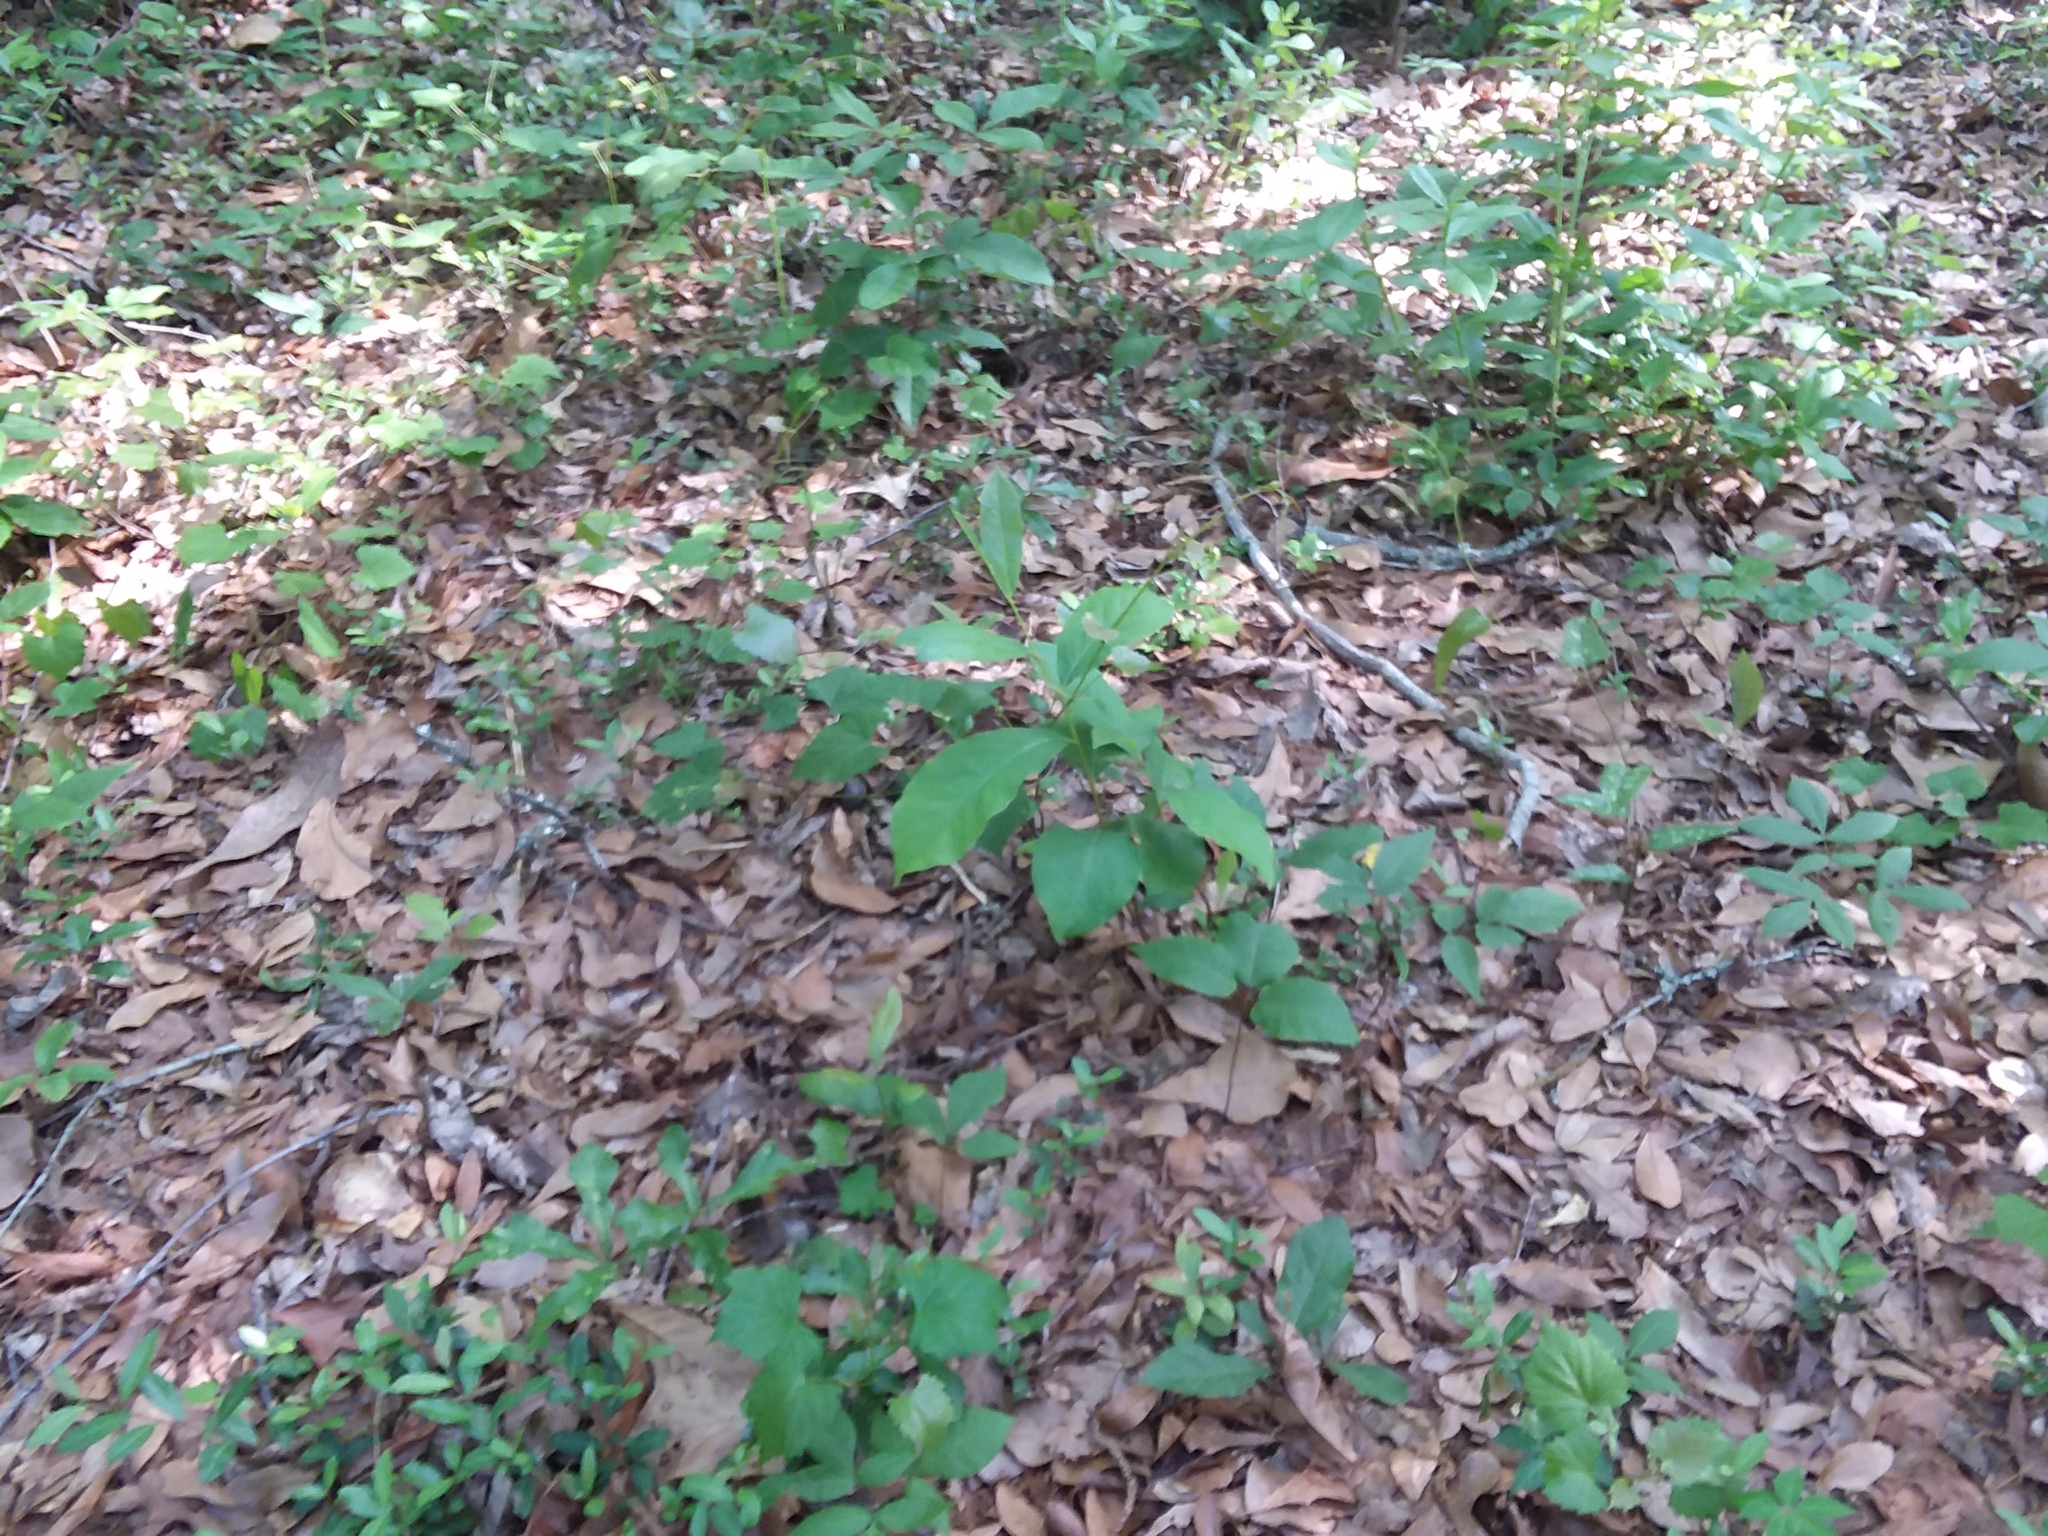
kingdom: Plantae
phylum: Tracheophyta
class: Magnoliopsida
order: Magnoliales
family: Annonaceae
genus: Asimina
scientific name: Asimina parviflora
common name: Dwarf pawpaw
